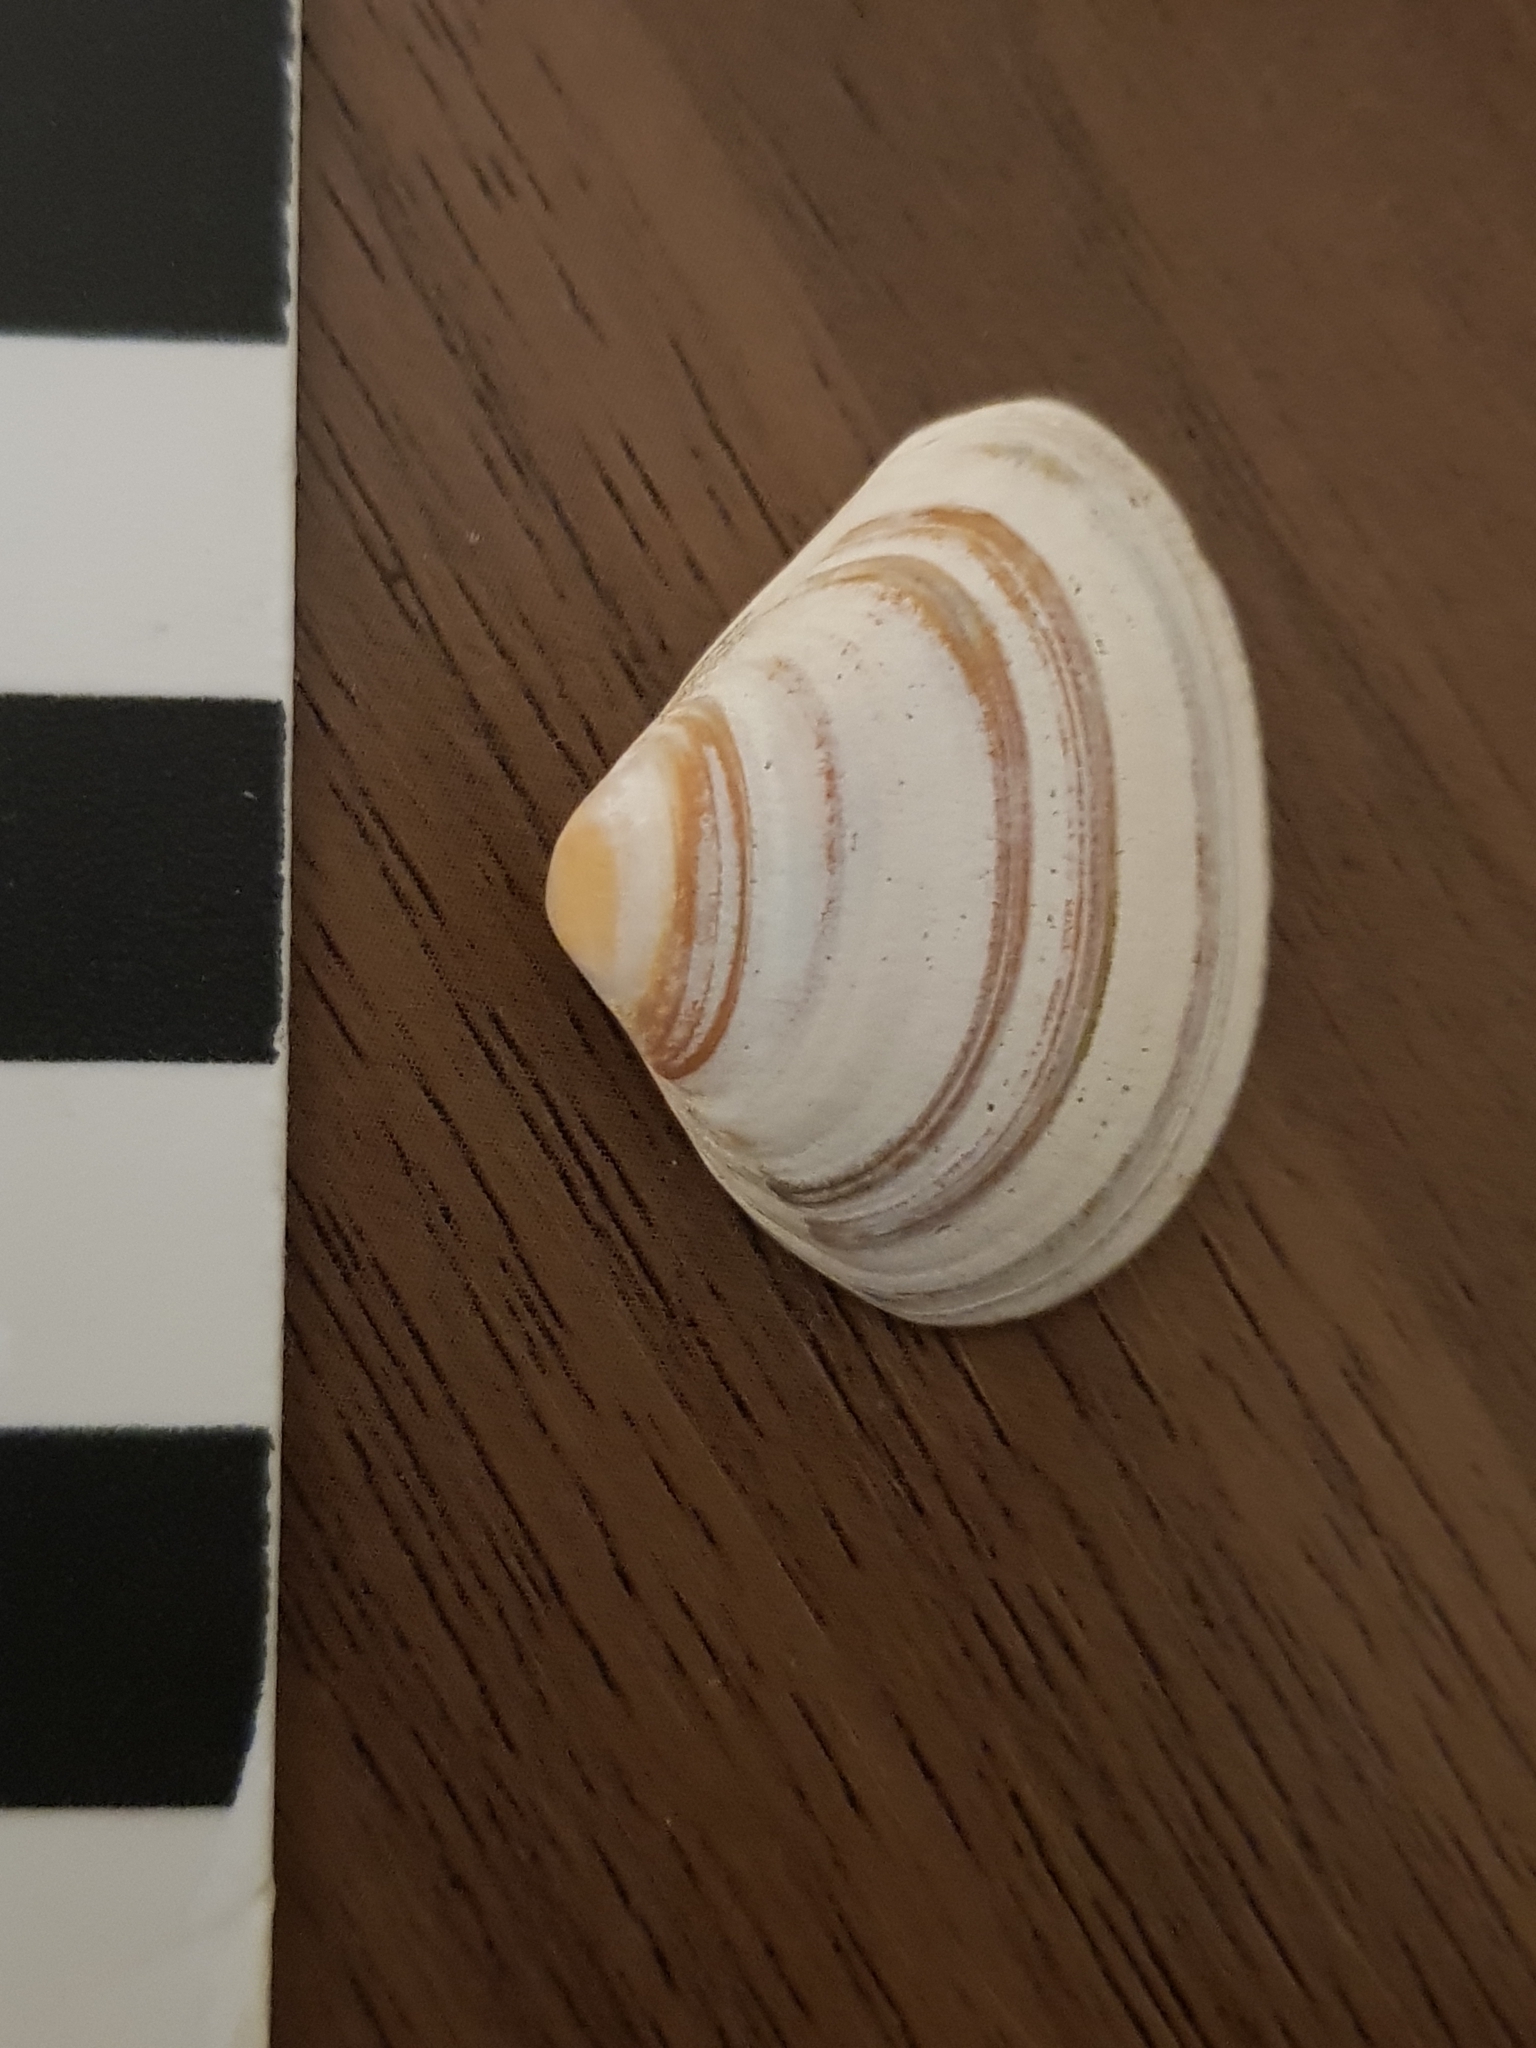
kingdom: Animalia
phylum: Mollusca
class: Bivalvia
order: Venerida
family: Mactridae
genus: Spisula
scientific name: Spisula subtruncata
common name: Cut trough shell
